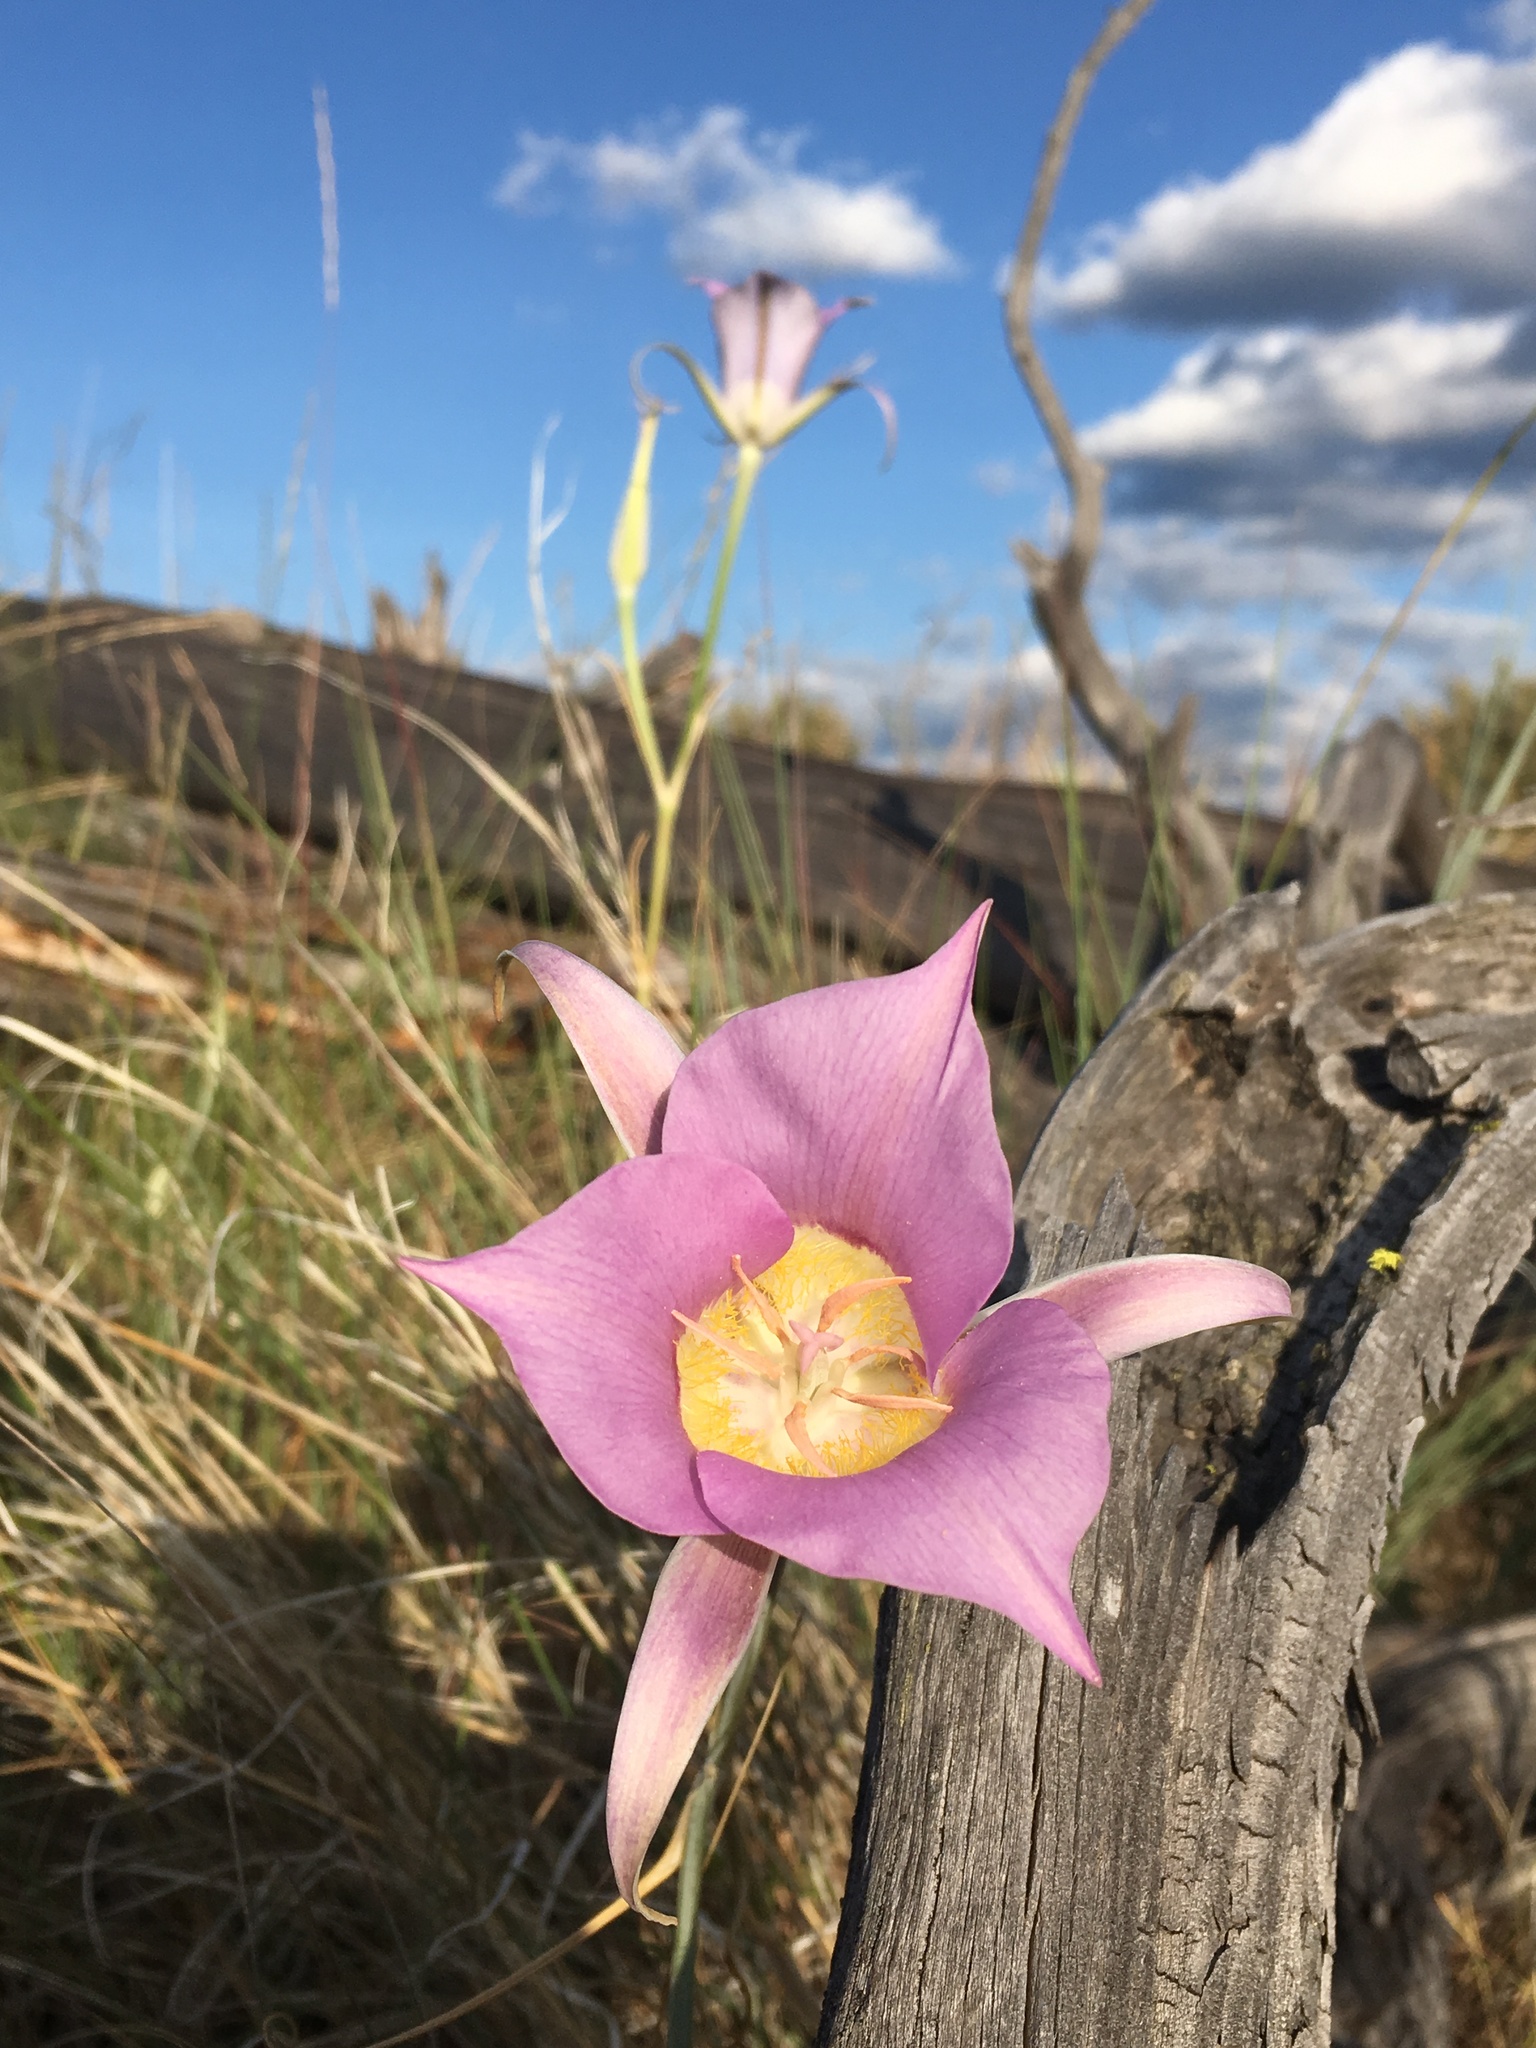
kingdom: Plantae
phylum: Tracheophyta
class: Liliopsida
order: Liliales
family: Liliaceae
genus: Calochortus
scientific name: Calochortus macrocarpus
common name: Green-band mariposa lily
